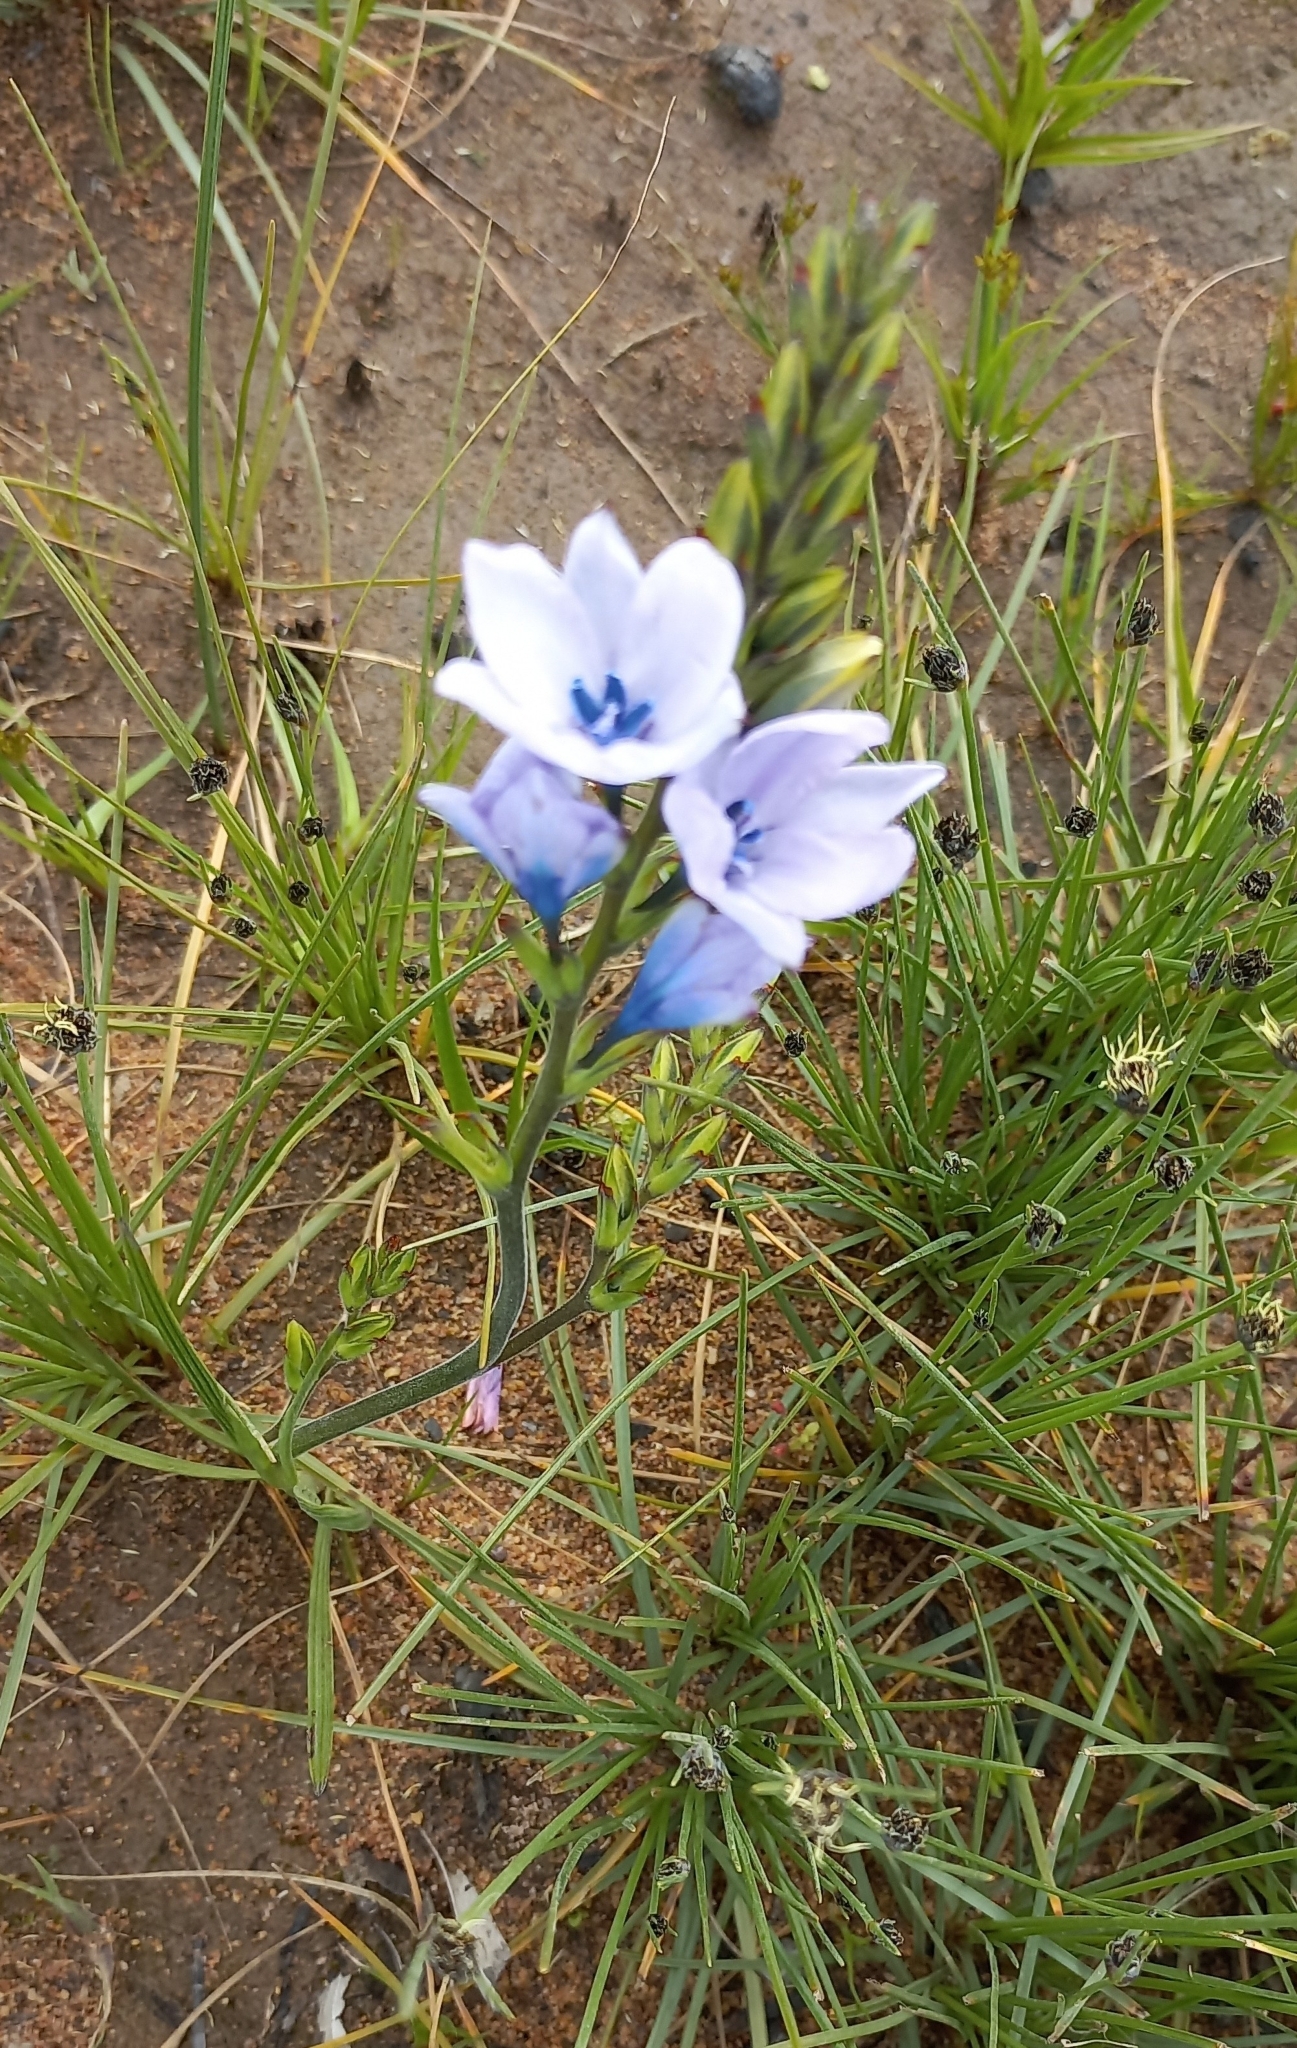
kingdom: Plantae
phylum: Tracheophyta
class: Liliopsida
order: Asparagales
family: Iridaceae
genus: Babiana
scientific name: Babiana fragrans
